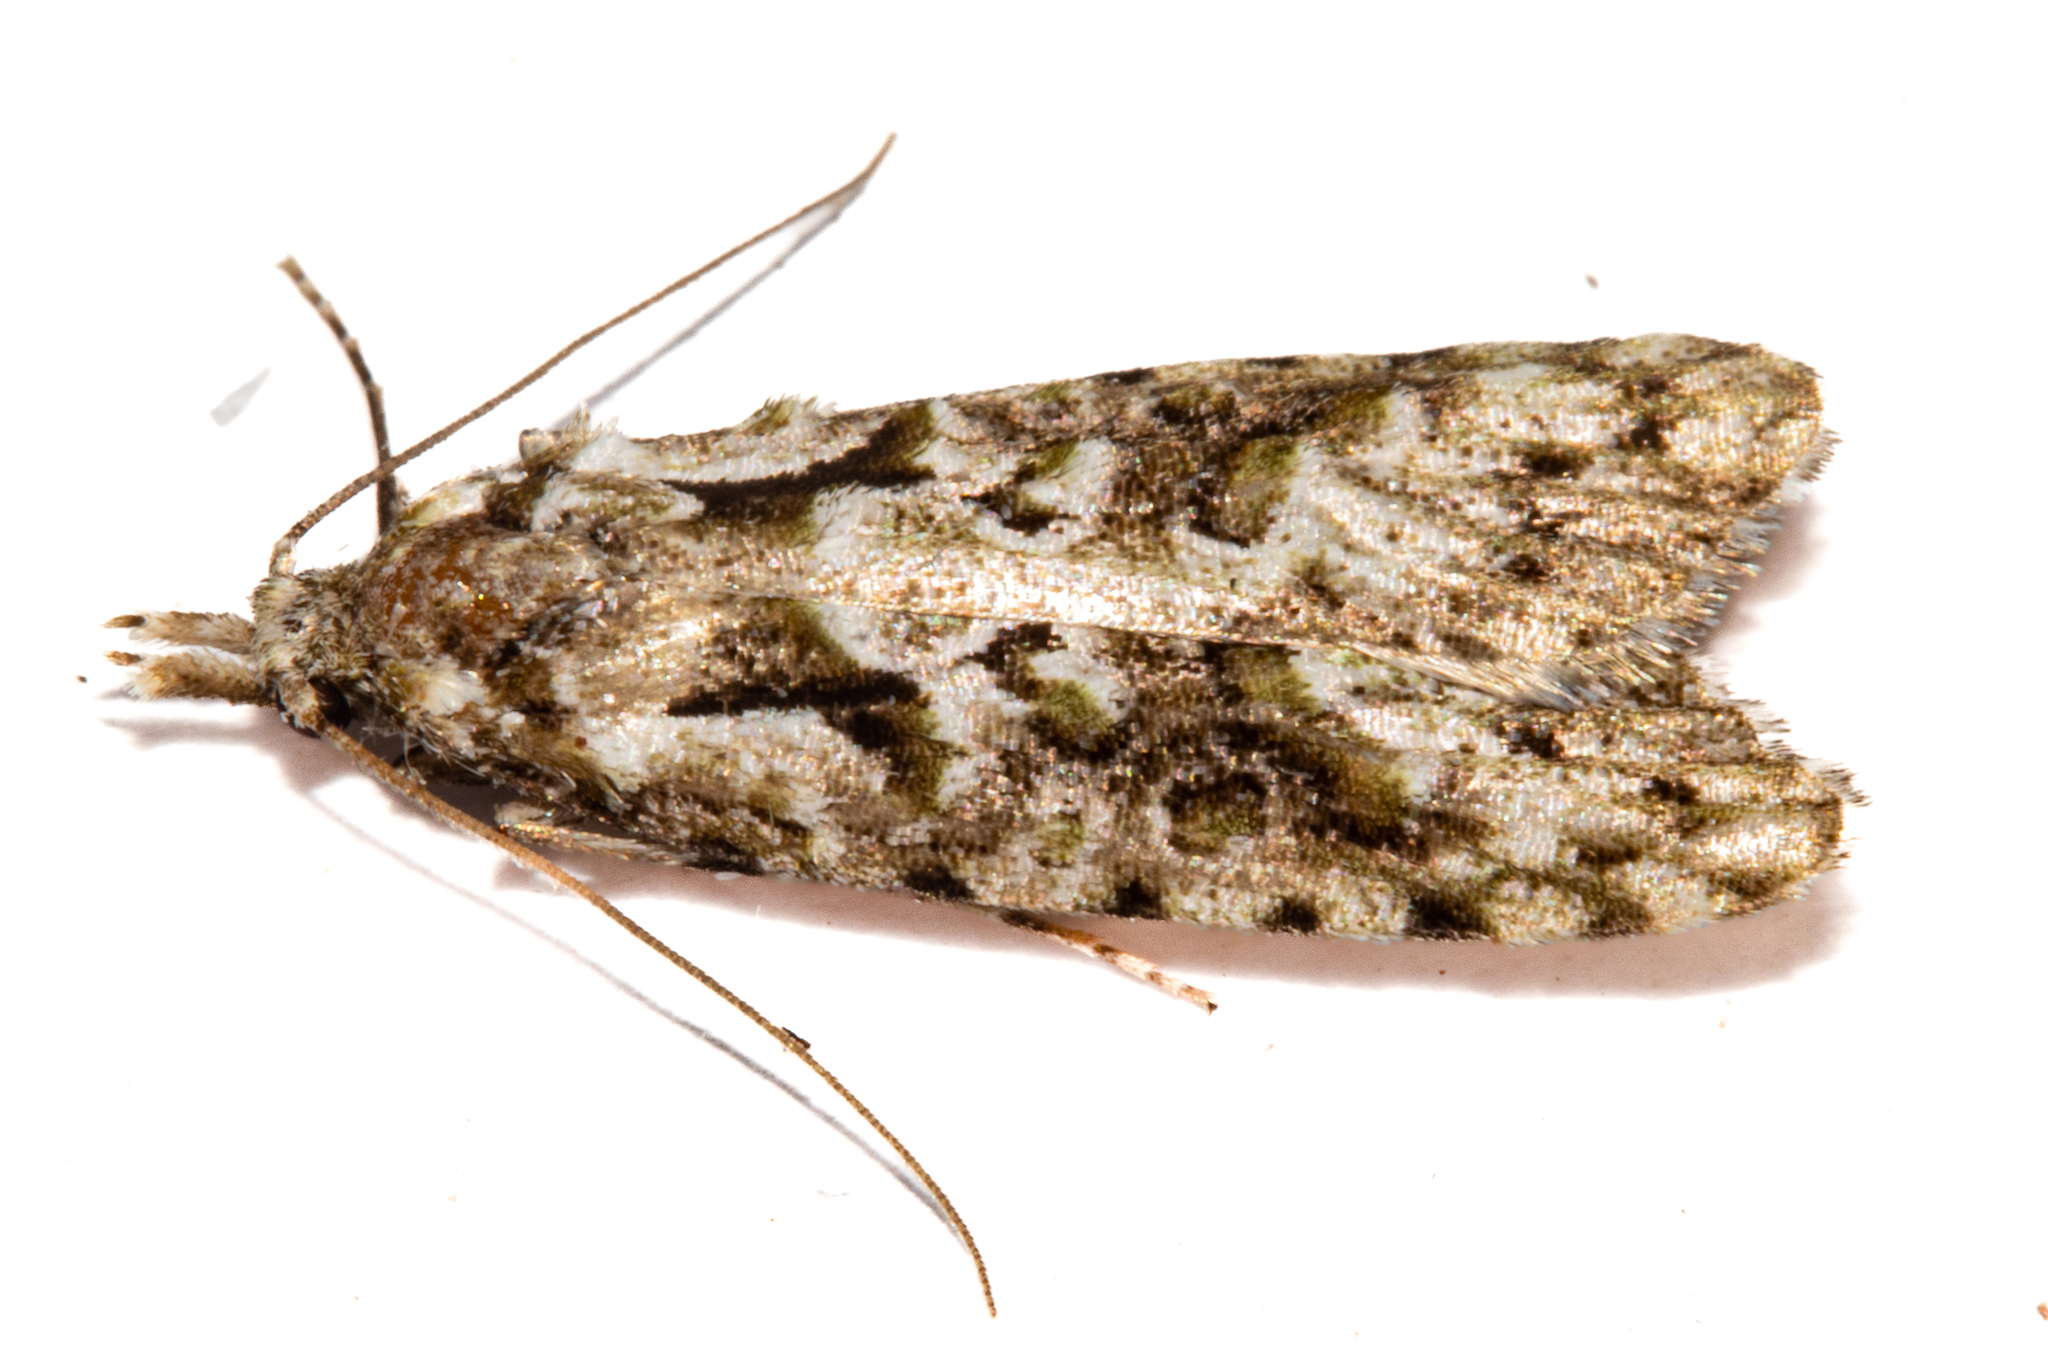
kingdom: Animalia
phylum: Arthropoda
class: Insecta
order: Lepidoptera
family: Carposinidae
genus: Carposina
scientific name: Carposina Heterocrossa eriphylla
